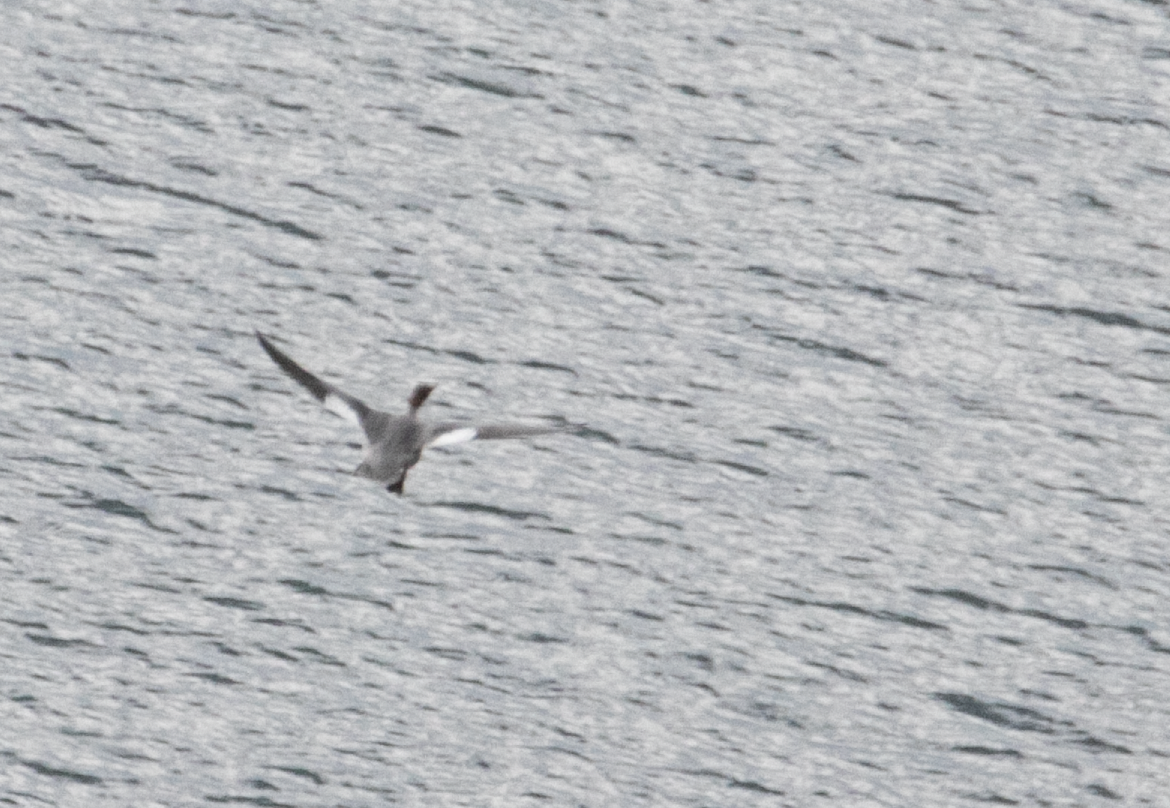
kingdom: Animalia
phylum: Chordata
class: Aves
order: Anseriformes
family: Anatidae
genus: Mergus
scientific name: Mergus merganser
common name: Common merganser
